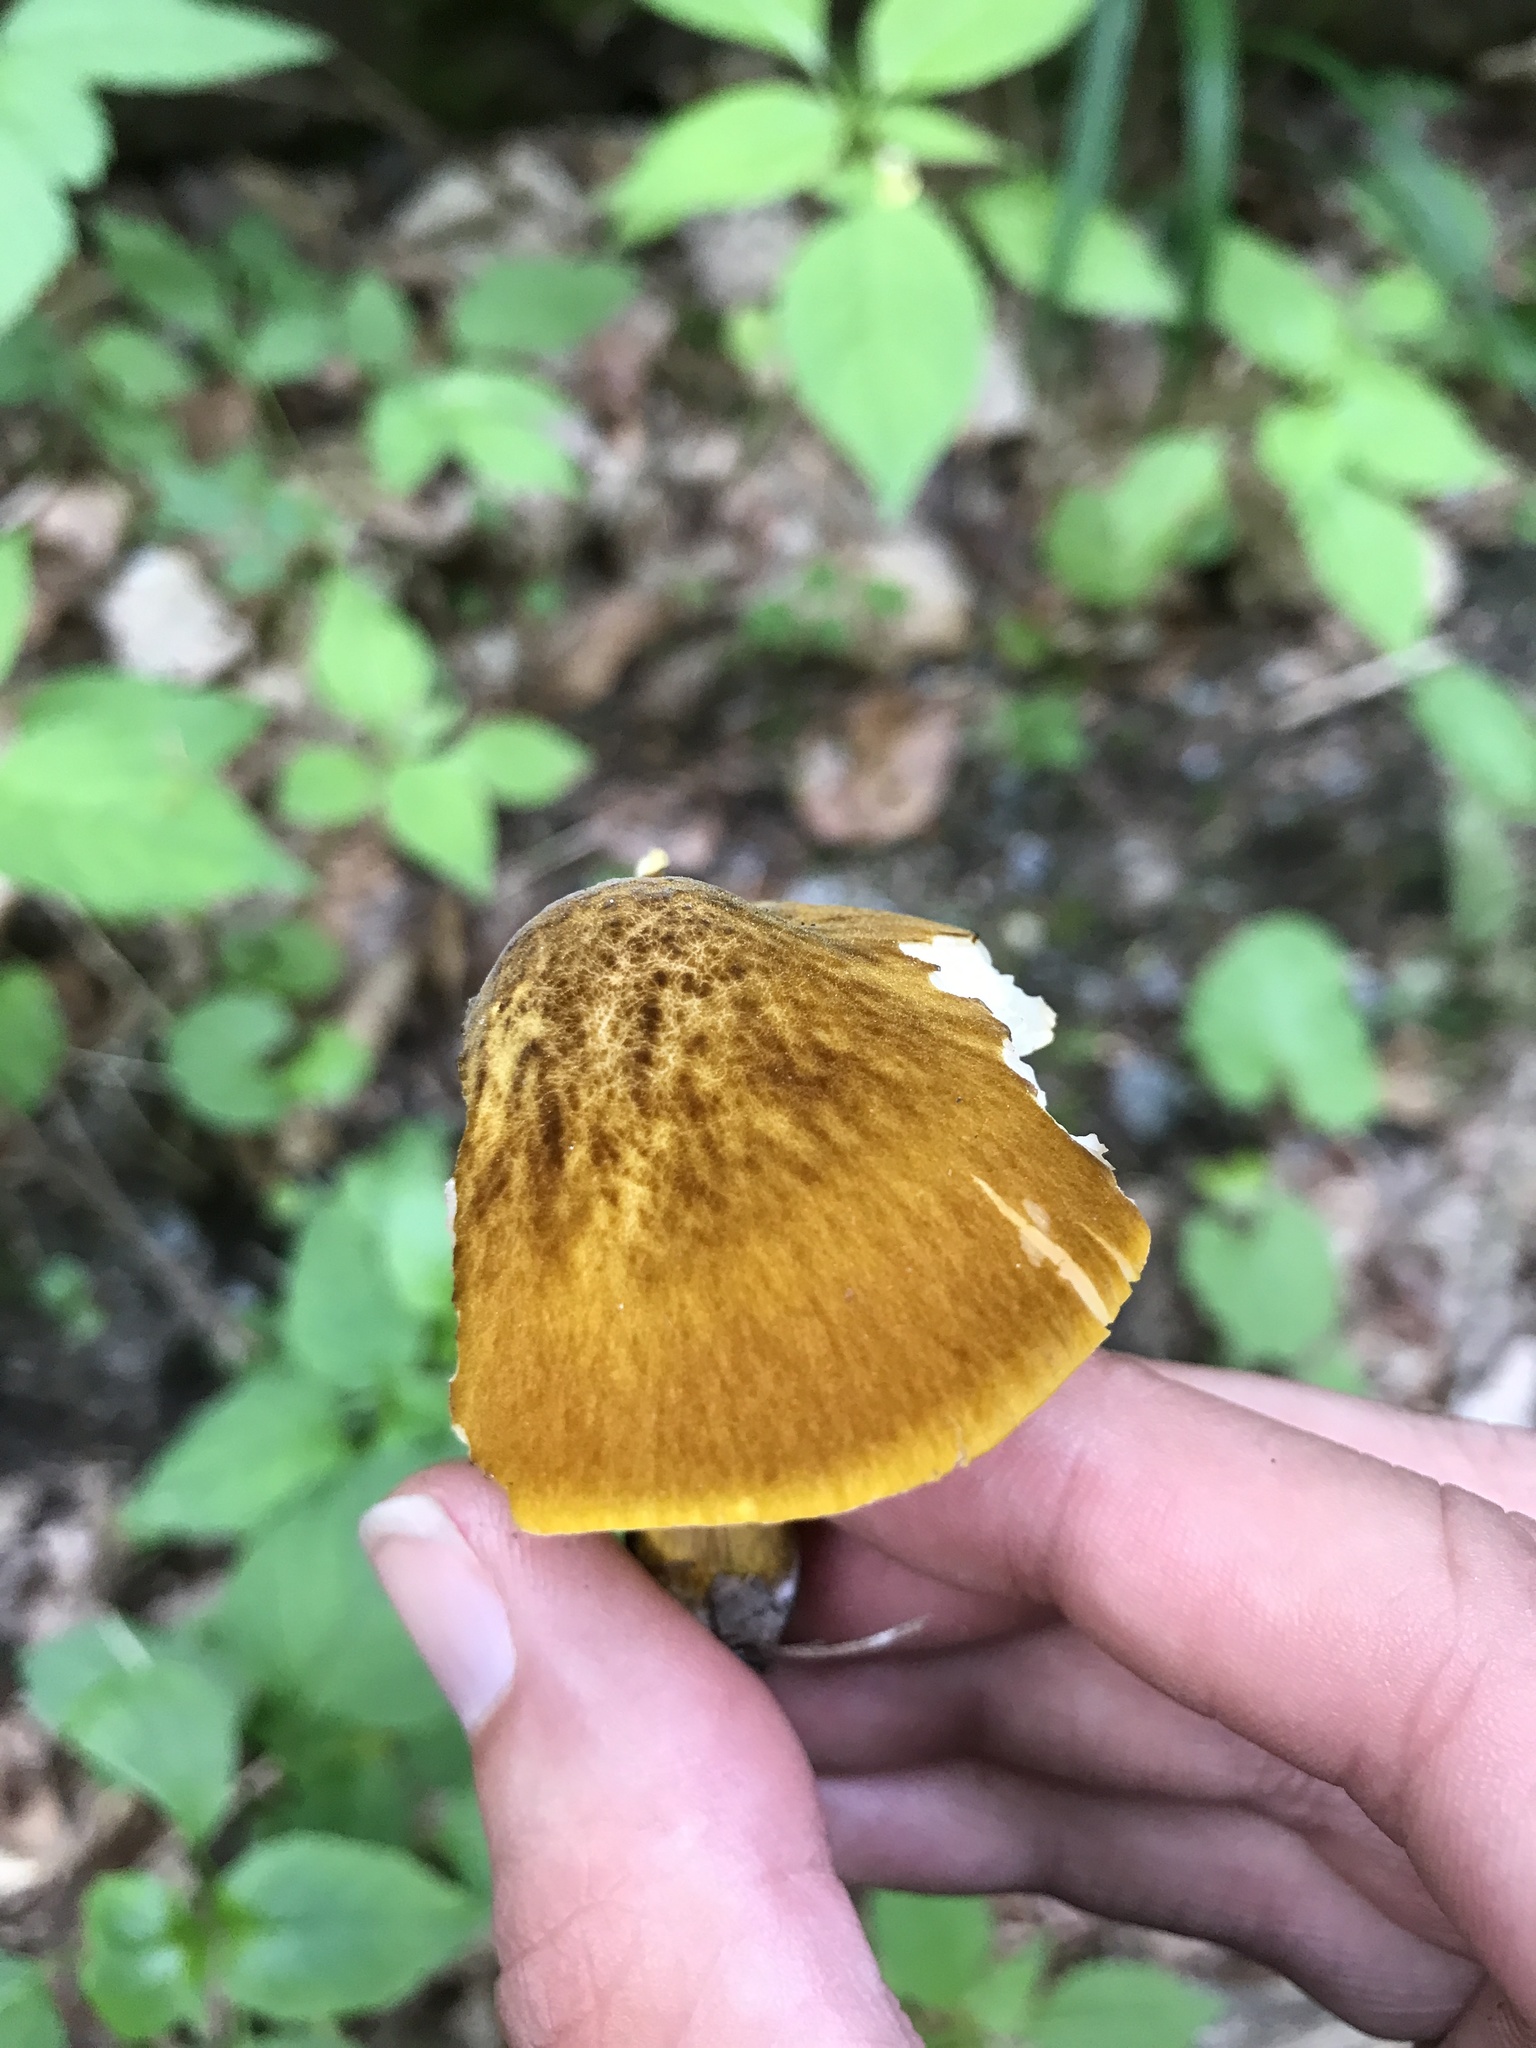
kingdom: Fungi
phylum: Basidiomycota
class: Agaricomycetes
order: Agaricales
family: Pluteaceae
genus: Pluteus
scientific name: Pluteus romellii
